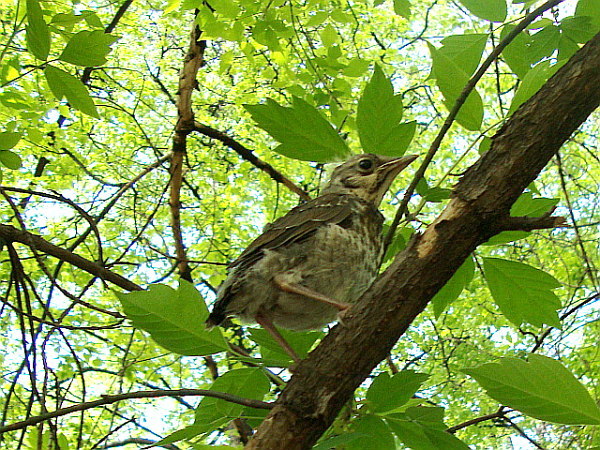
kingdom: Plantae
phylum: Tracheophyta
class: Magnoliopsida
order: Sapindales
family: Sapindaceae
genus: Acer
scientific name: Acer negundo
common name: Ashleaf maple
